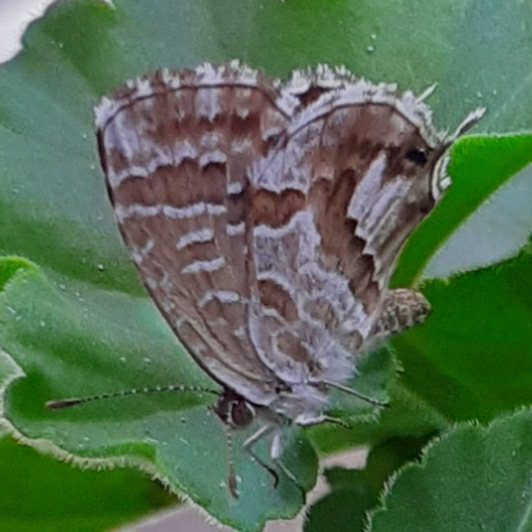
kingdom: Animalia
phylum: Arthropoda
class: Insecta
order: Lepidoptera
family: Lycaenidae
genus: Cacyreus
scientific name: Cacyreus marshalli
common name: Geranium bronze
